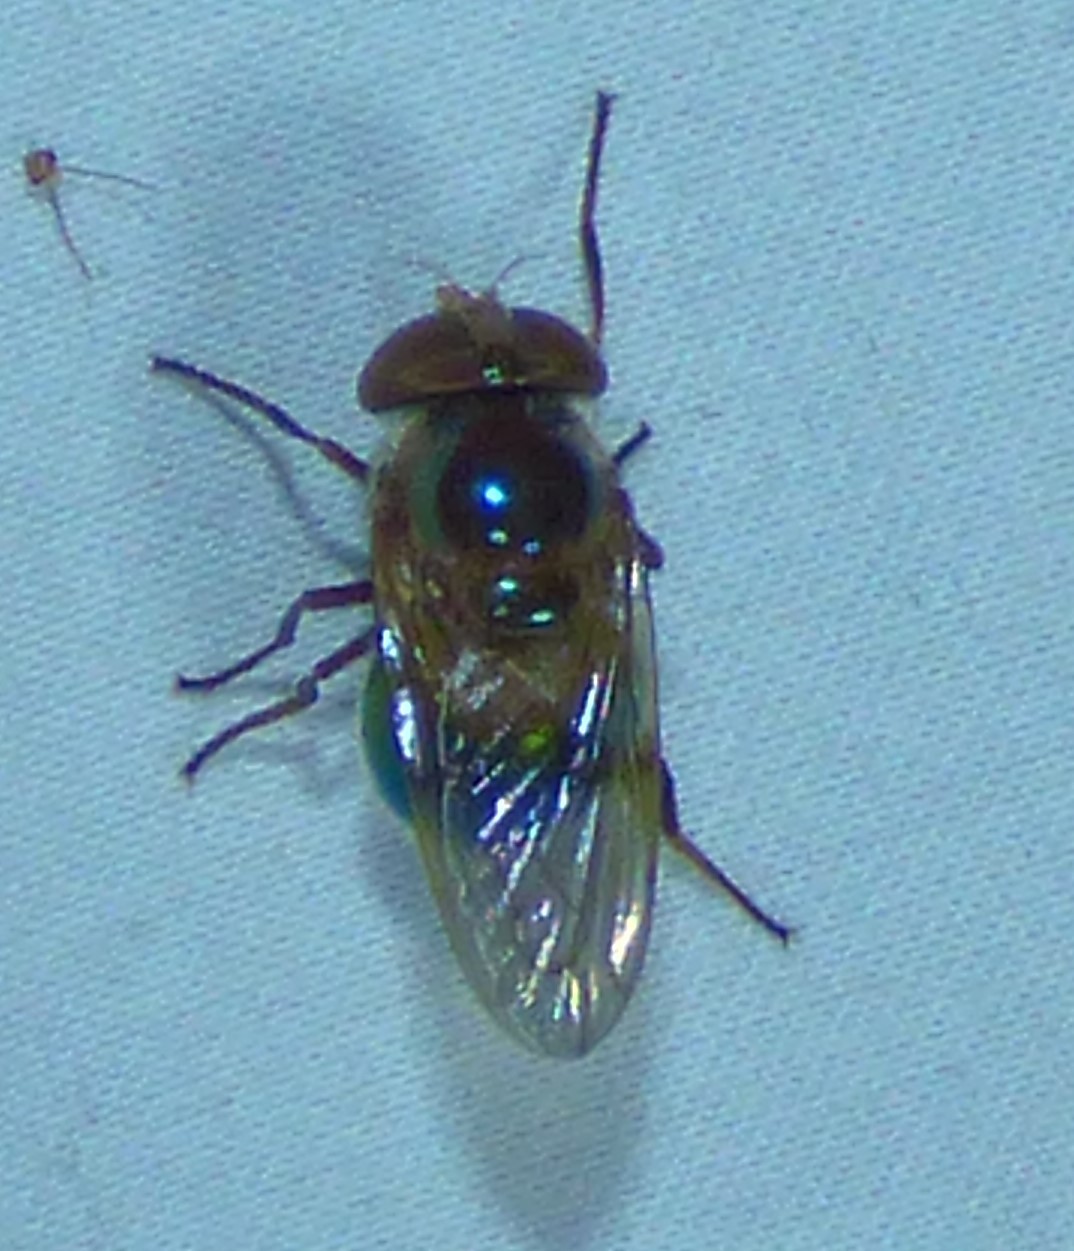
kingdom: Animalia
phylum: Arthropoda
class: Insecta
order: Diptera
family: Syrphidae
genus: Copestylum
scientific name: Copestylum vesicularium
